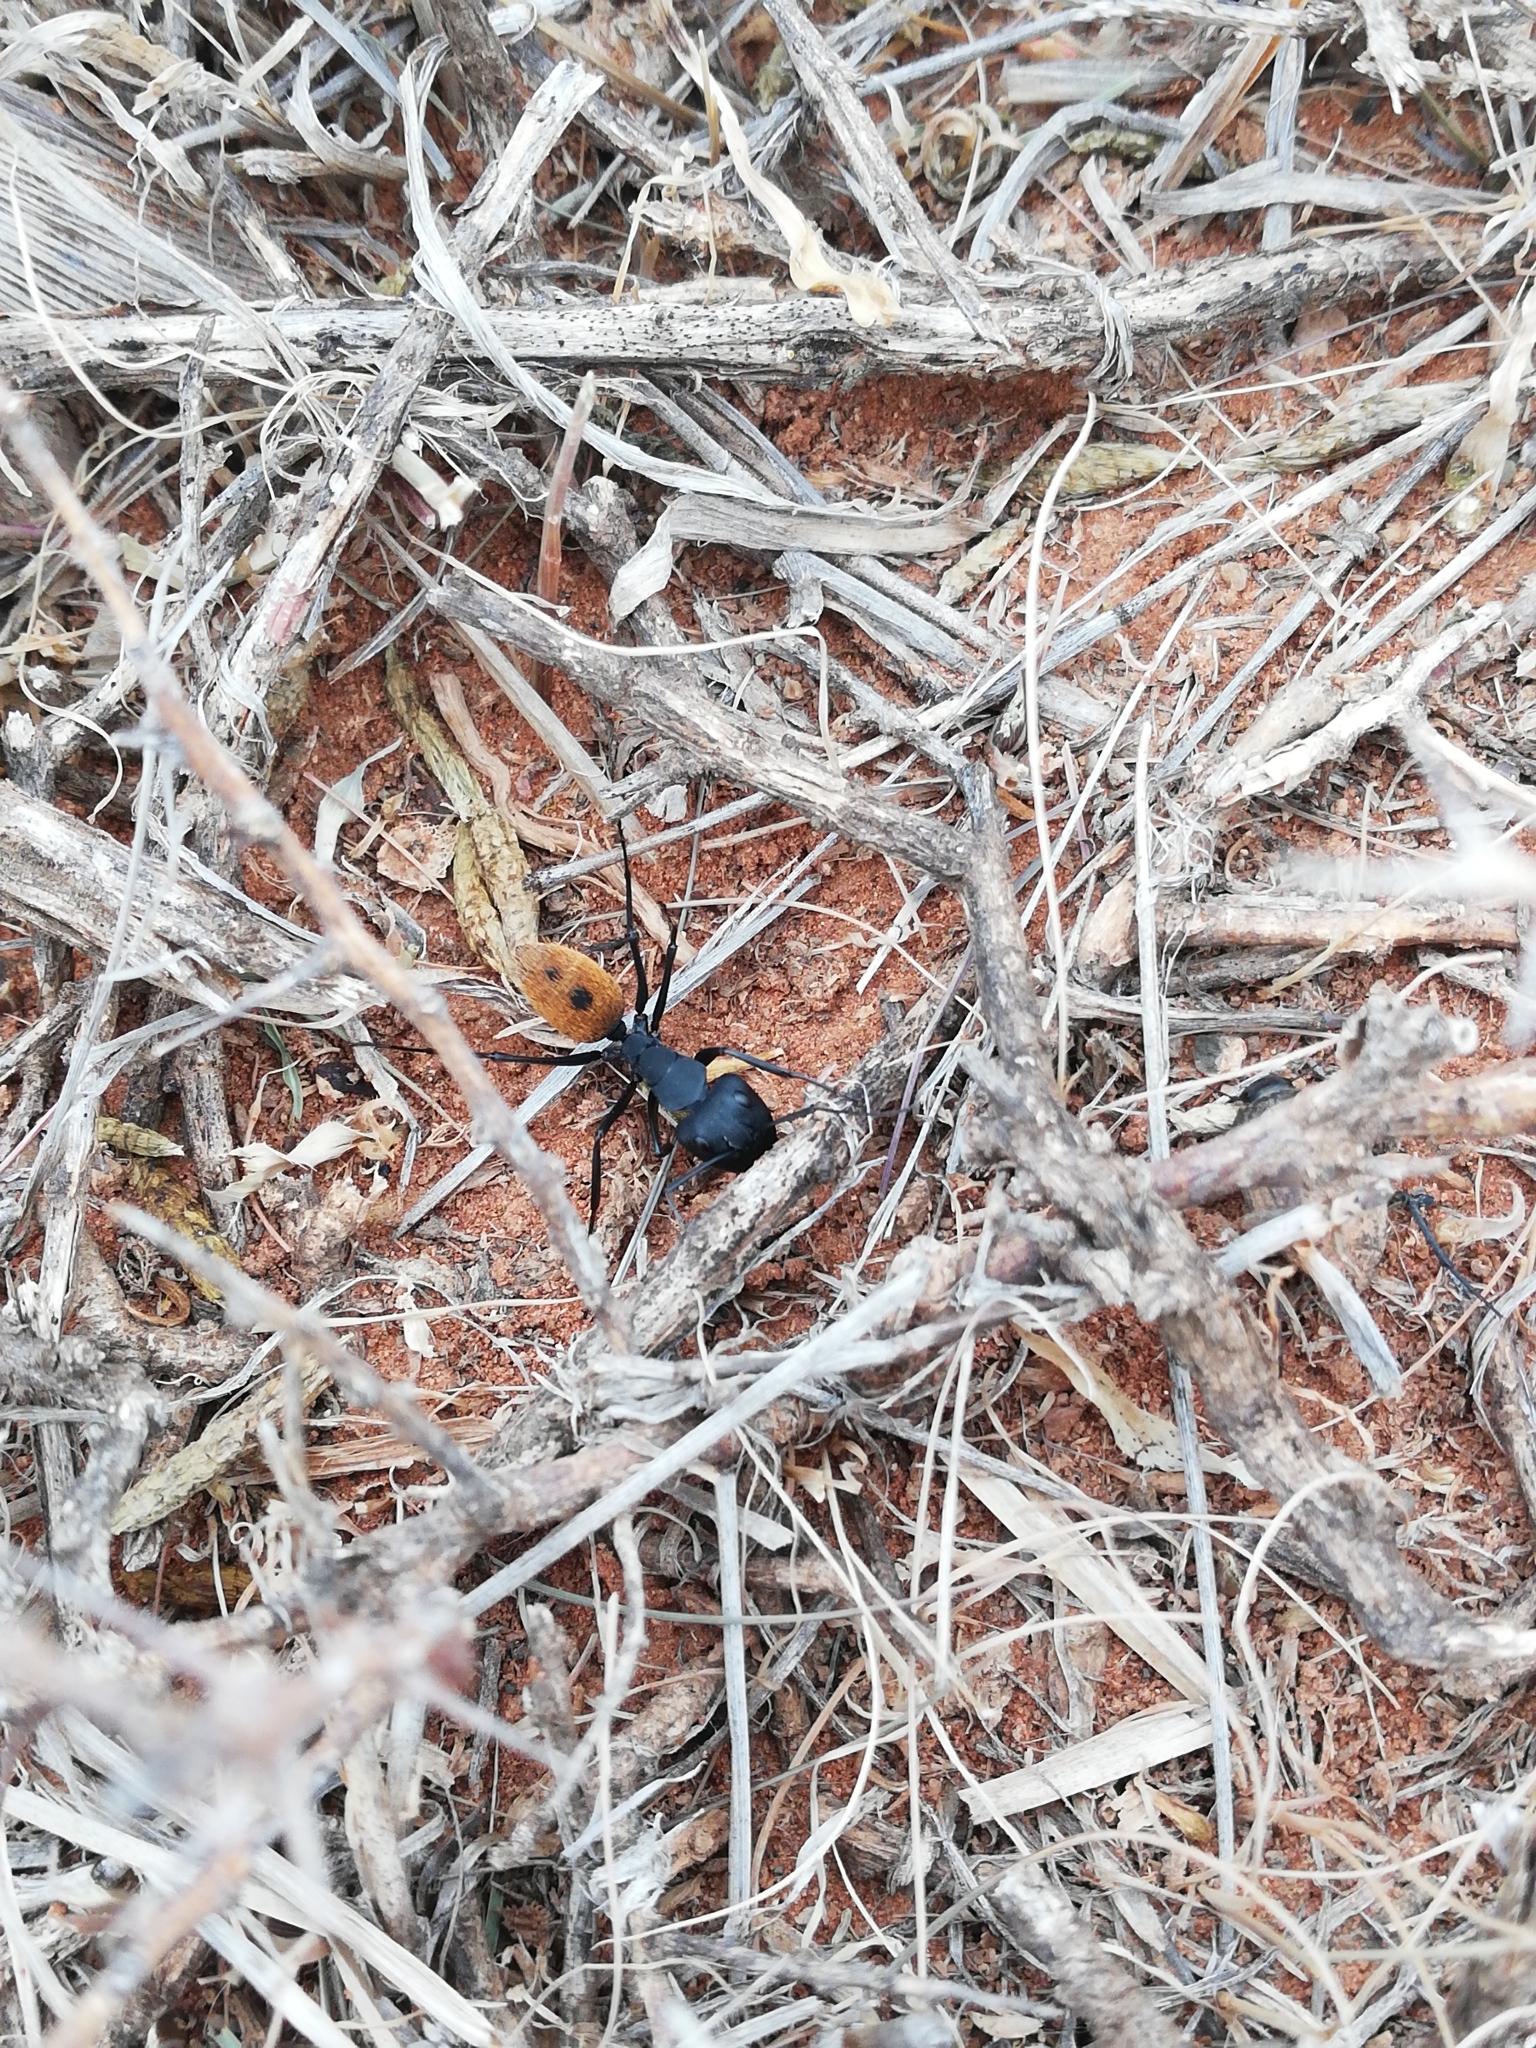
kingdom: Animalia
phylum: Arthropoda
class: Insecta
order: Hymenoptera
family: Formicidae
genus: Camponotus
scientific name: Camponotus fulvopilosus
